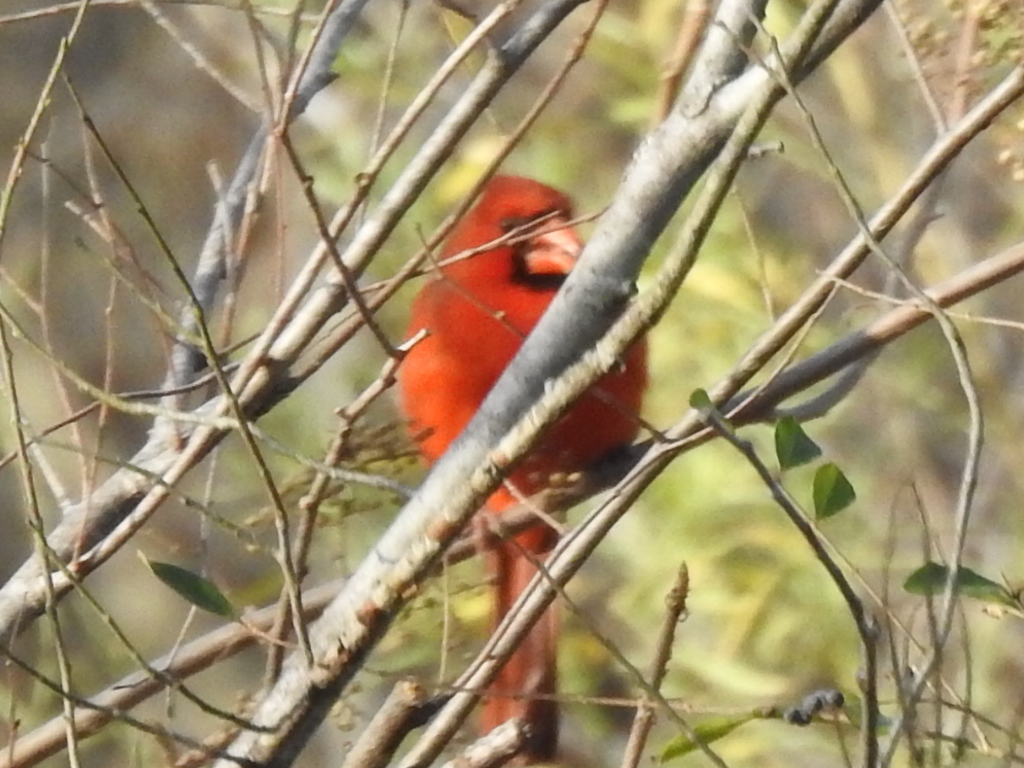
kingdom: Animalia
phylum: Chordata
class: Aves
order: Passeriformes
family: Cardinalidae
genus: Cardinalis
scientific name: Cardinalis cardinalis
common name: Northern cardinal
